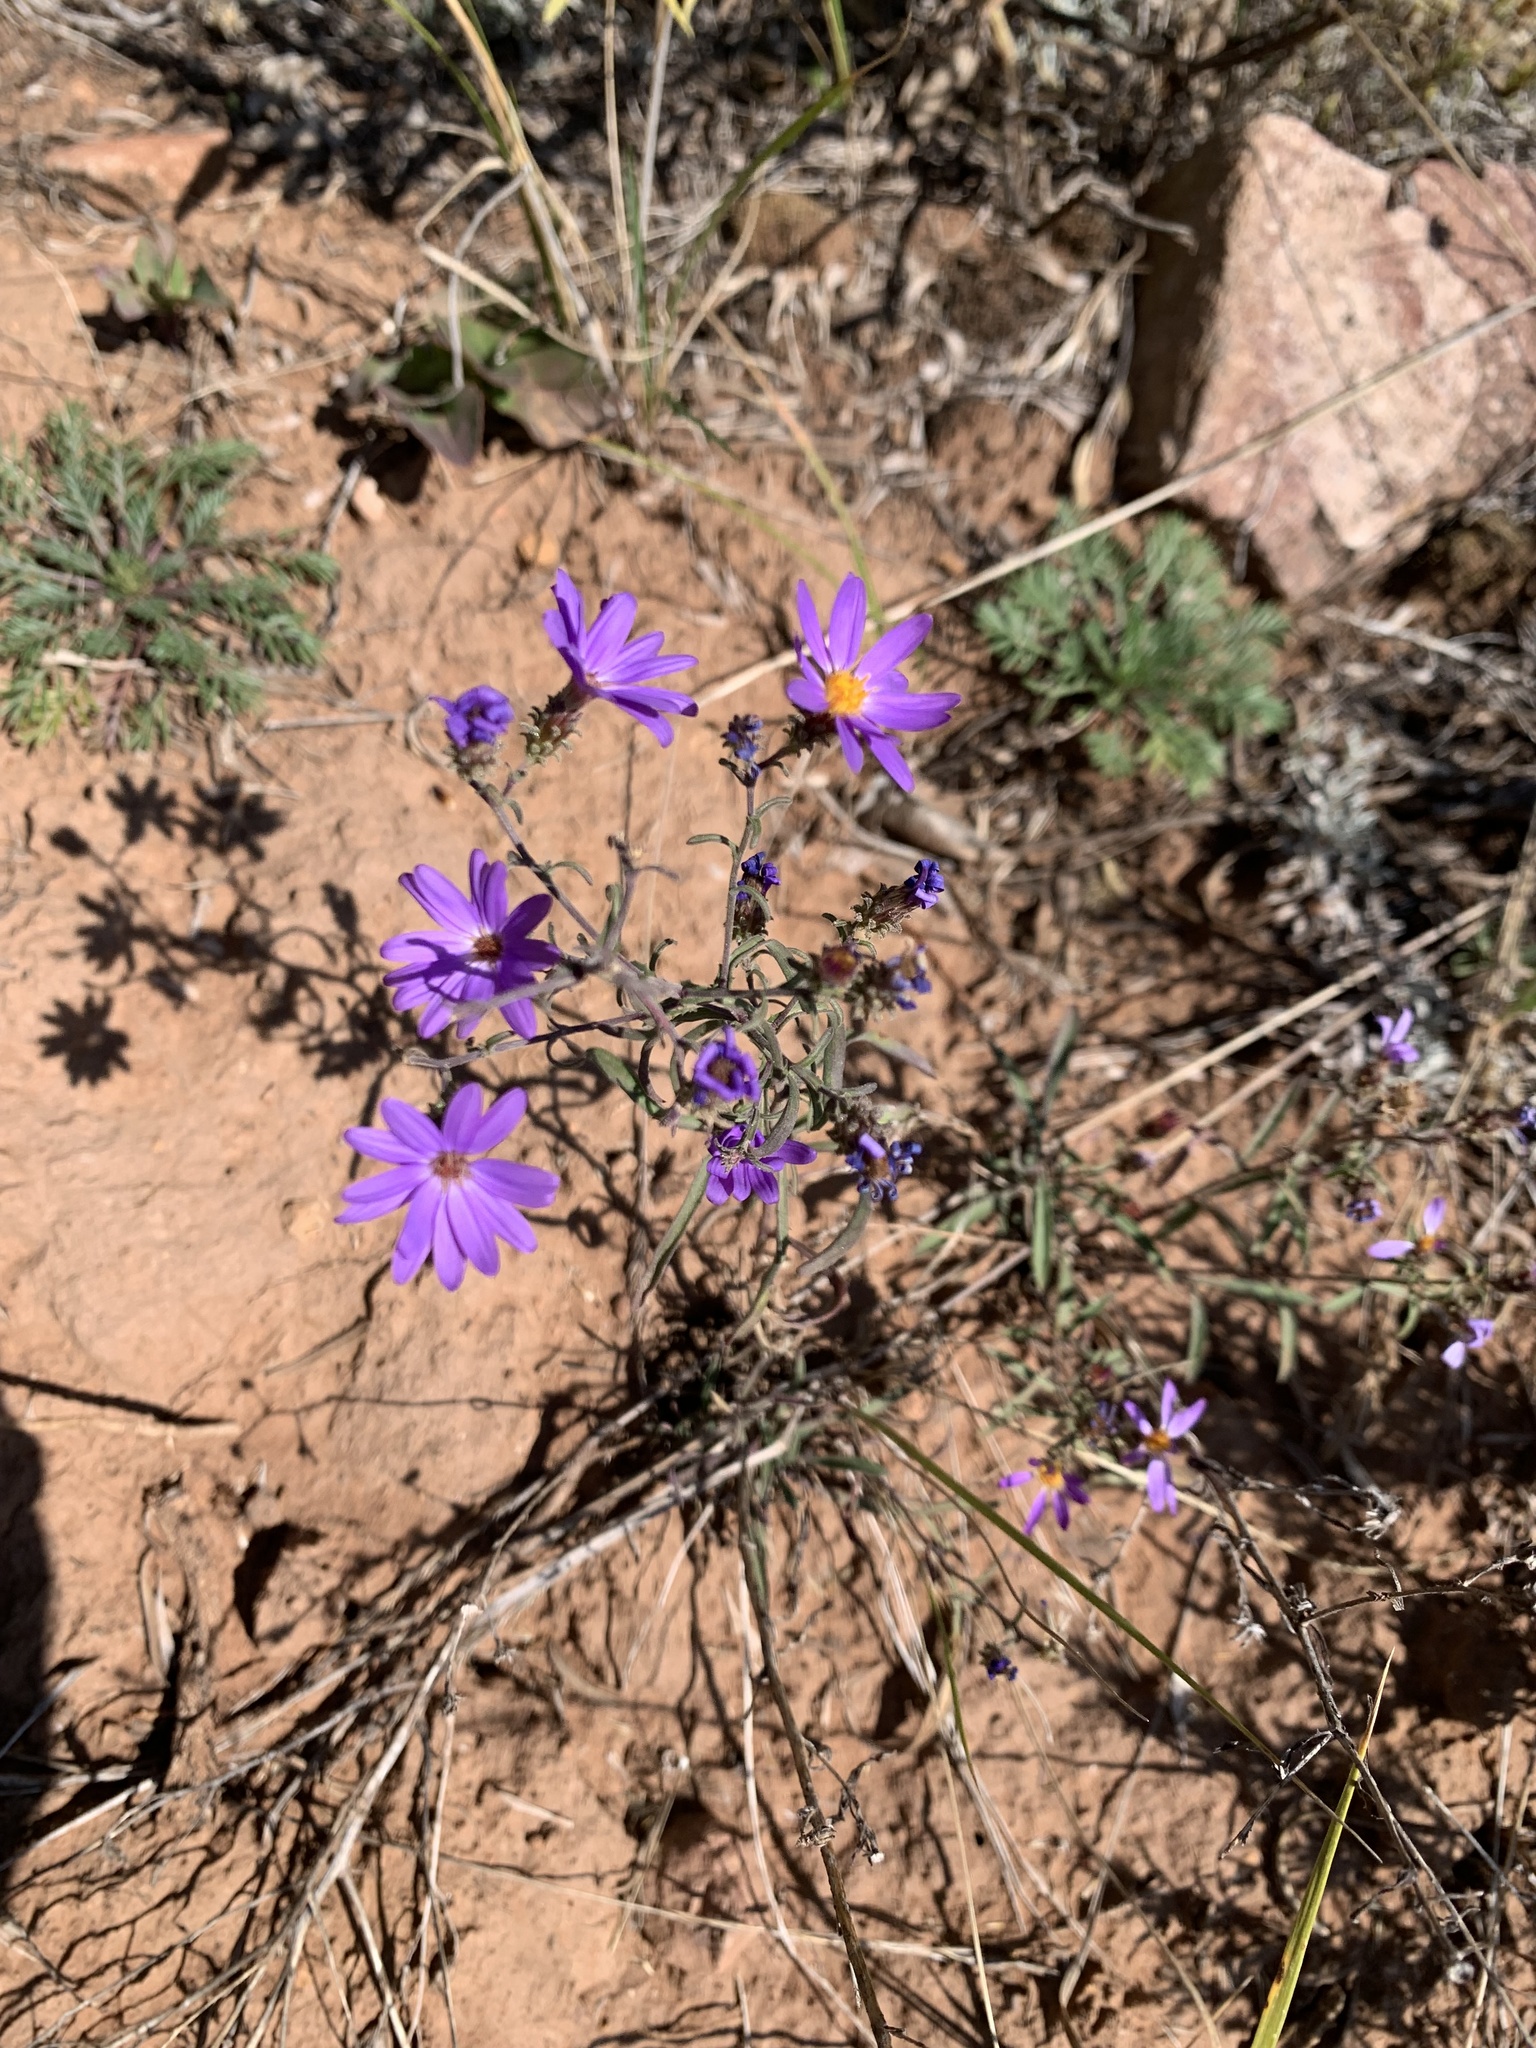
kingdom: Plantae
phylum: Tracheophyta
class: Magnoliopsida
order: Asterales
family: Asteraceae
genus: Dieteria
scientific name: Dieteria canescens
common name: Hoary-aster
